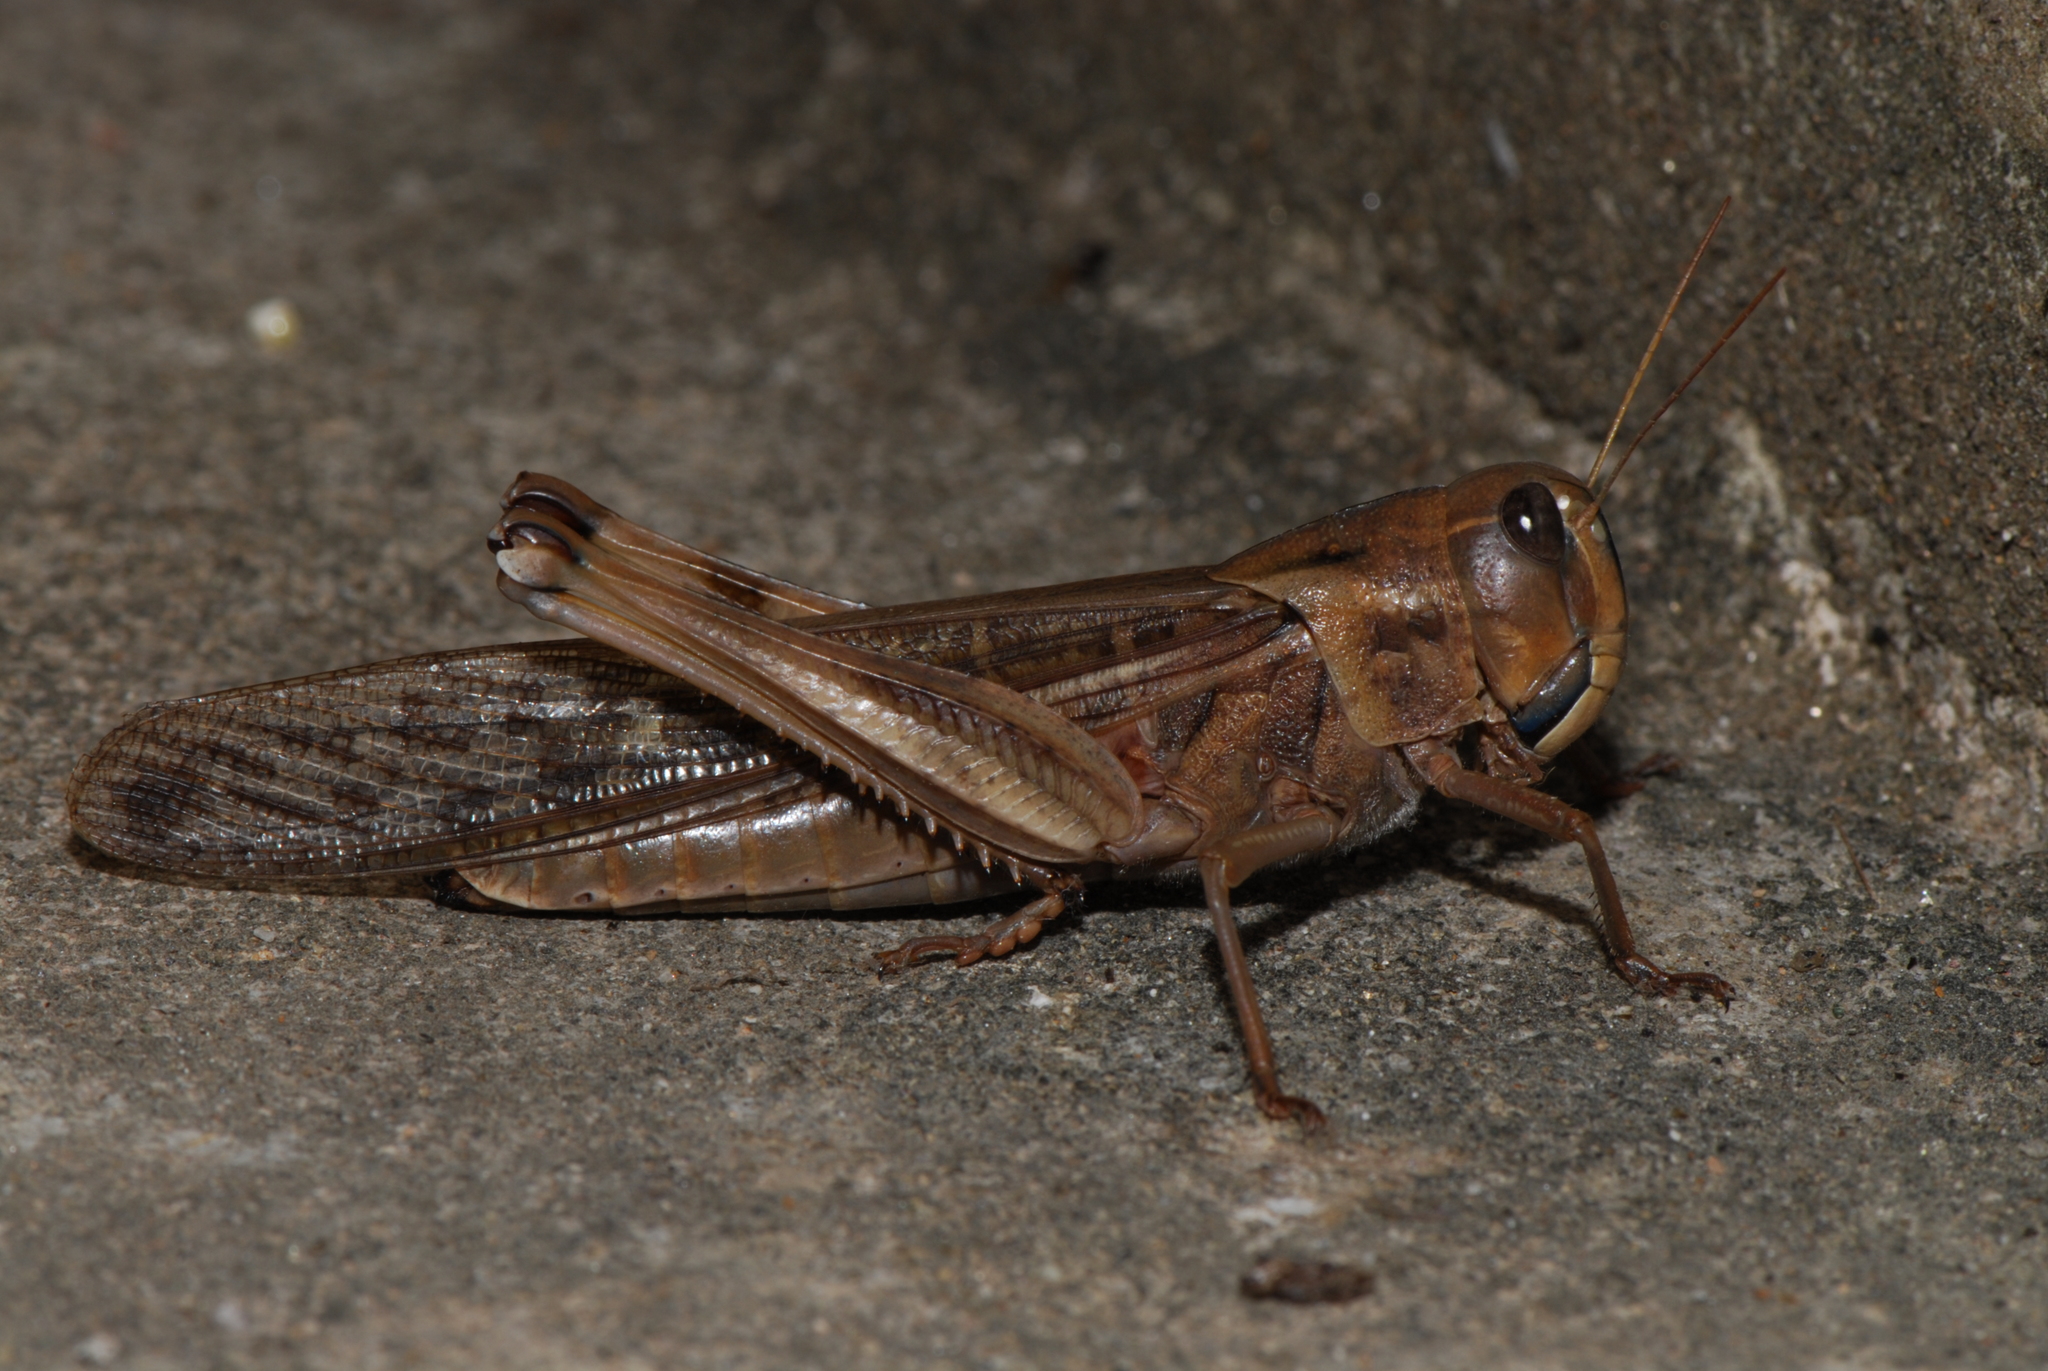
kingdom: Animalia
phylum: Arthropoda
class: Insecta
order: Orthoptera
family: Acrididae
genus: Locusta
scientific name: Locusta migratoria
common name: Migratory locust
